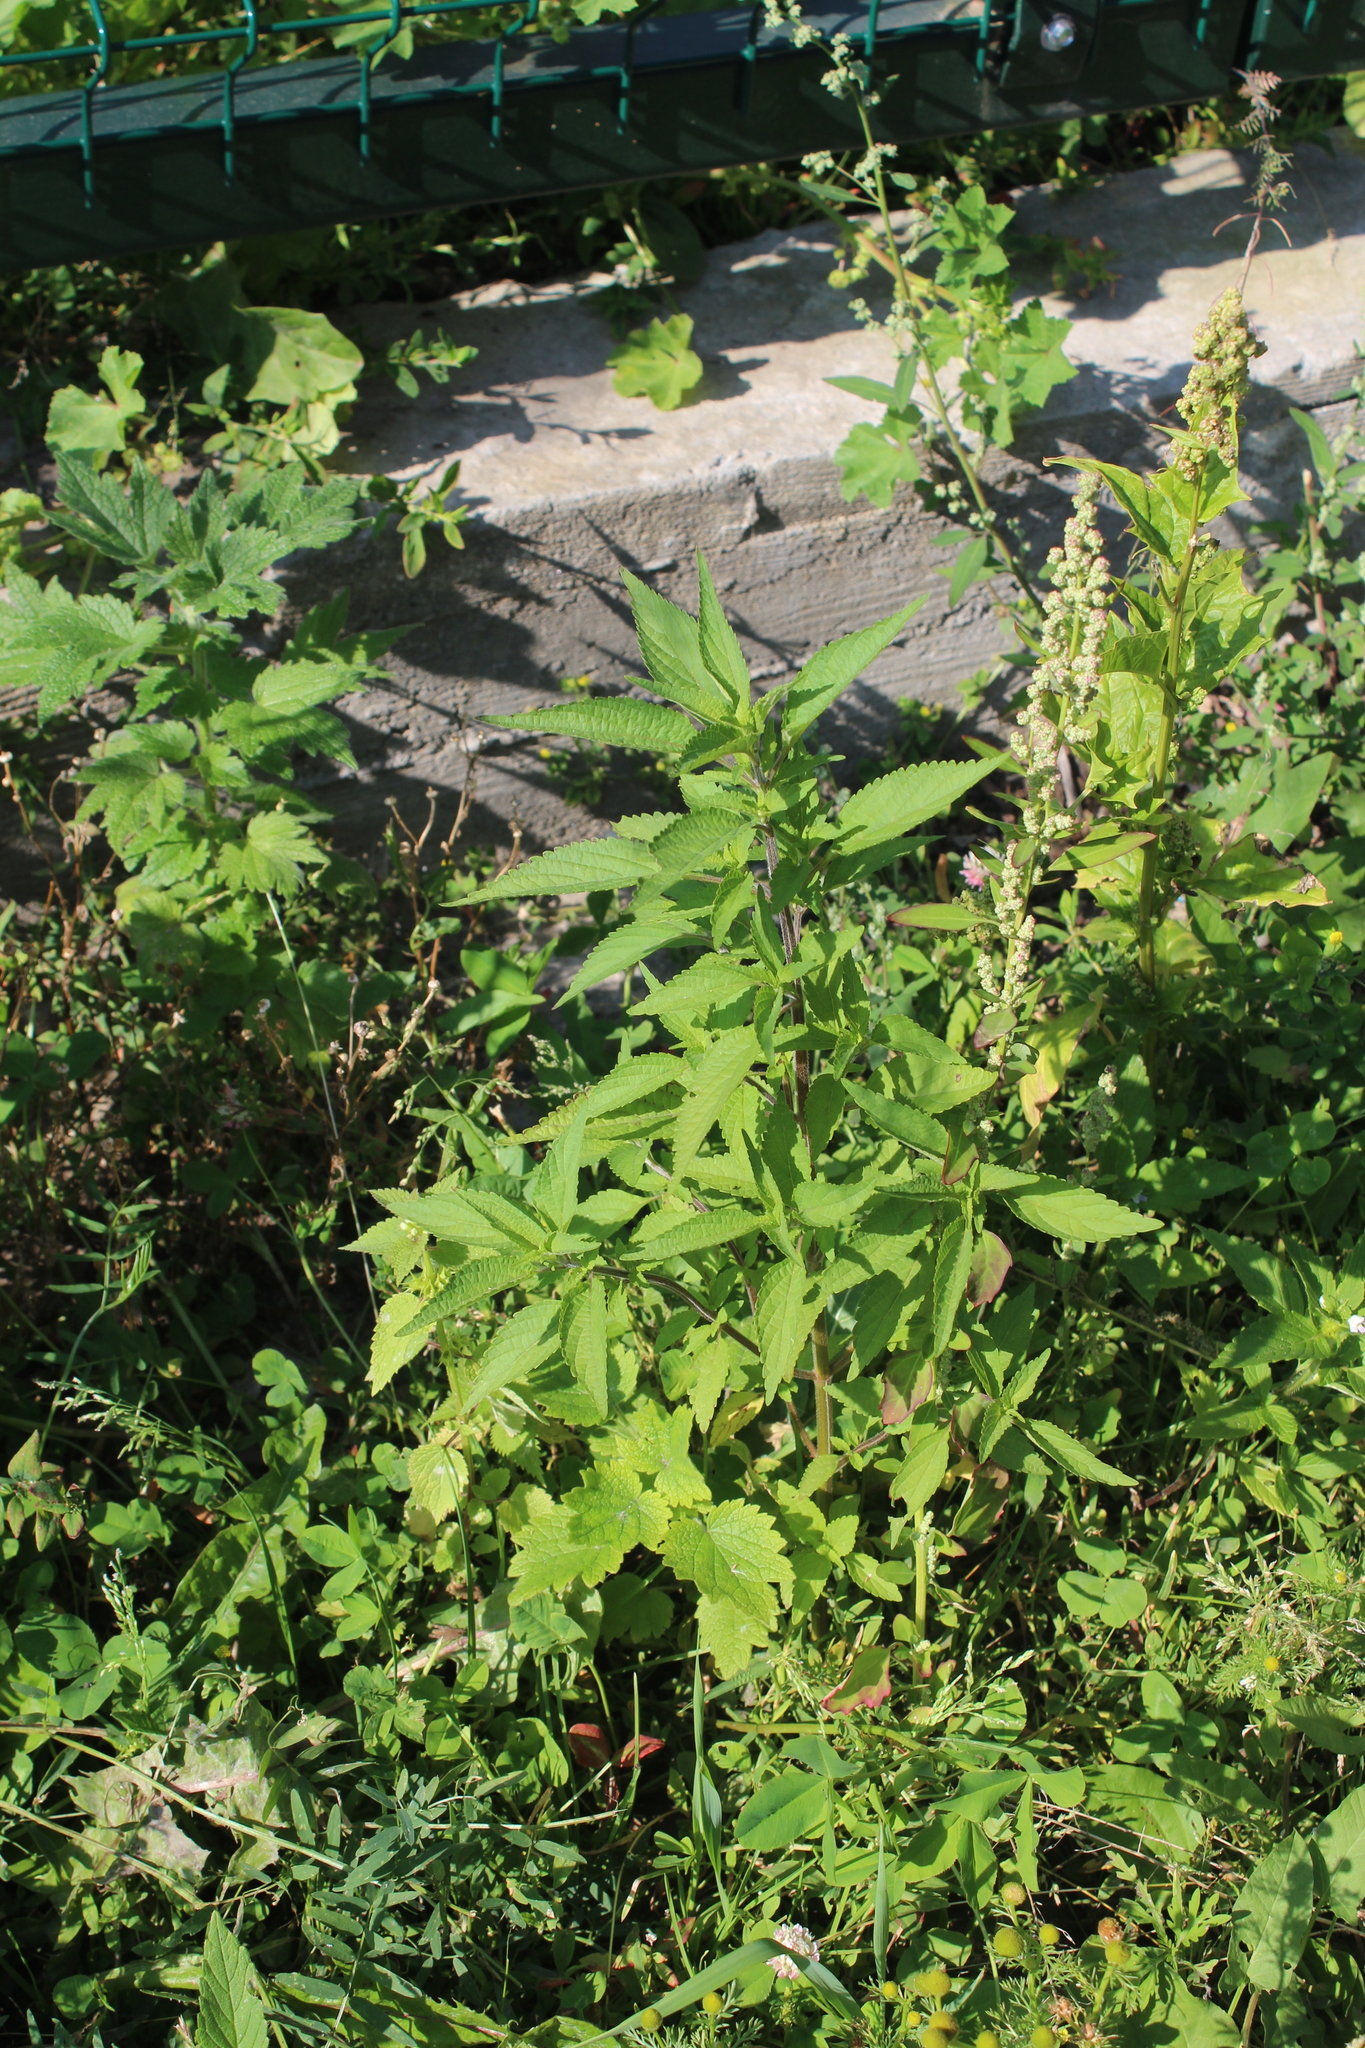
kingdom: Plantae
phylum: Tracheophyta
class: Magnoliopsida
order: Lamiales
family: Lamiaceae
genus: Elsholtzia
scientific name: Elsholtzia ciliata
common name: Ciliate elsholtzia
